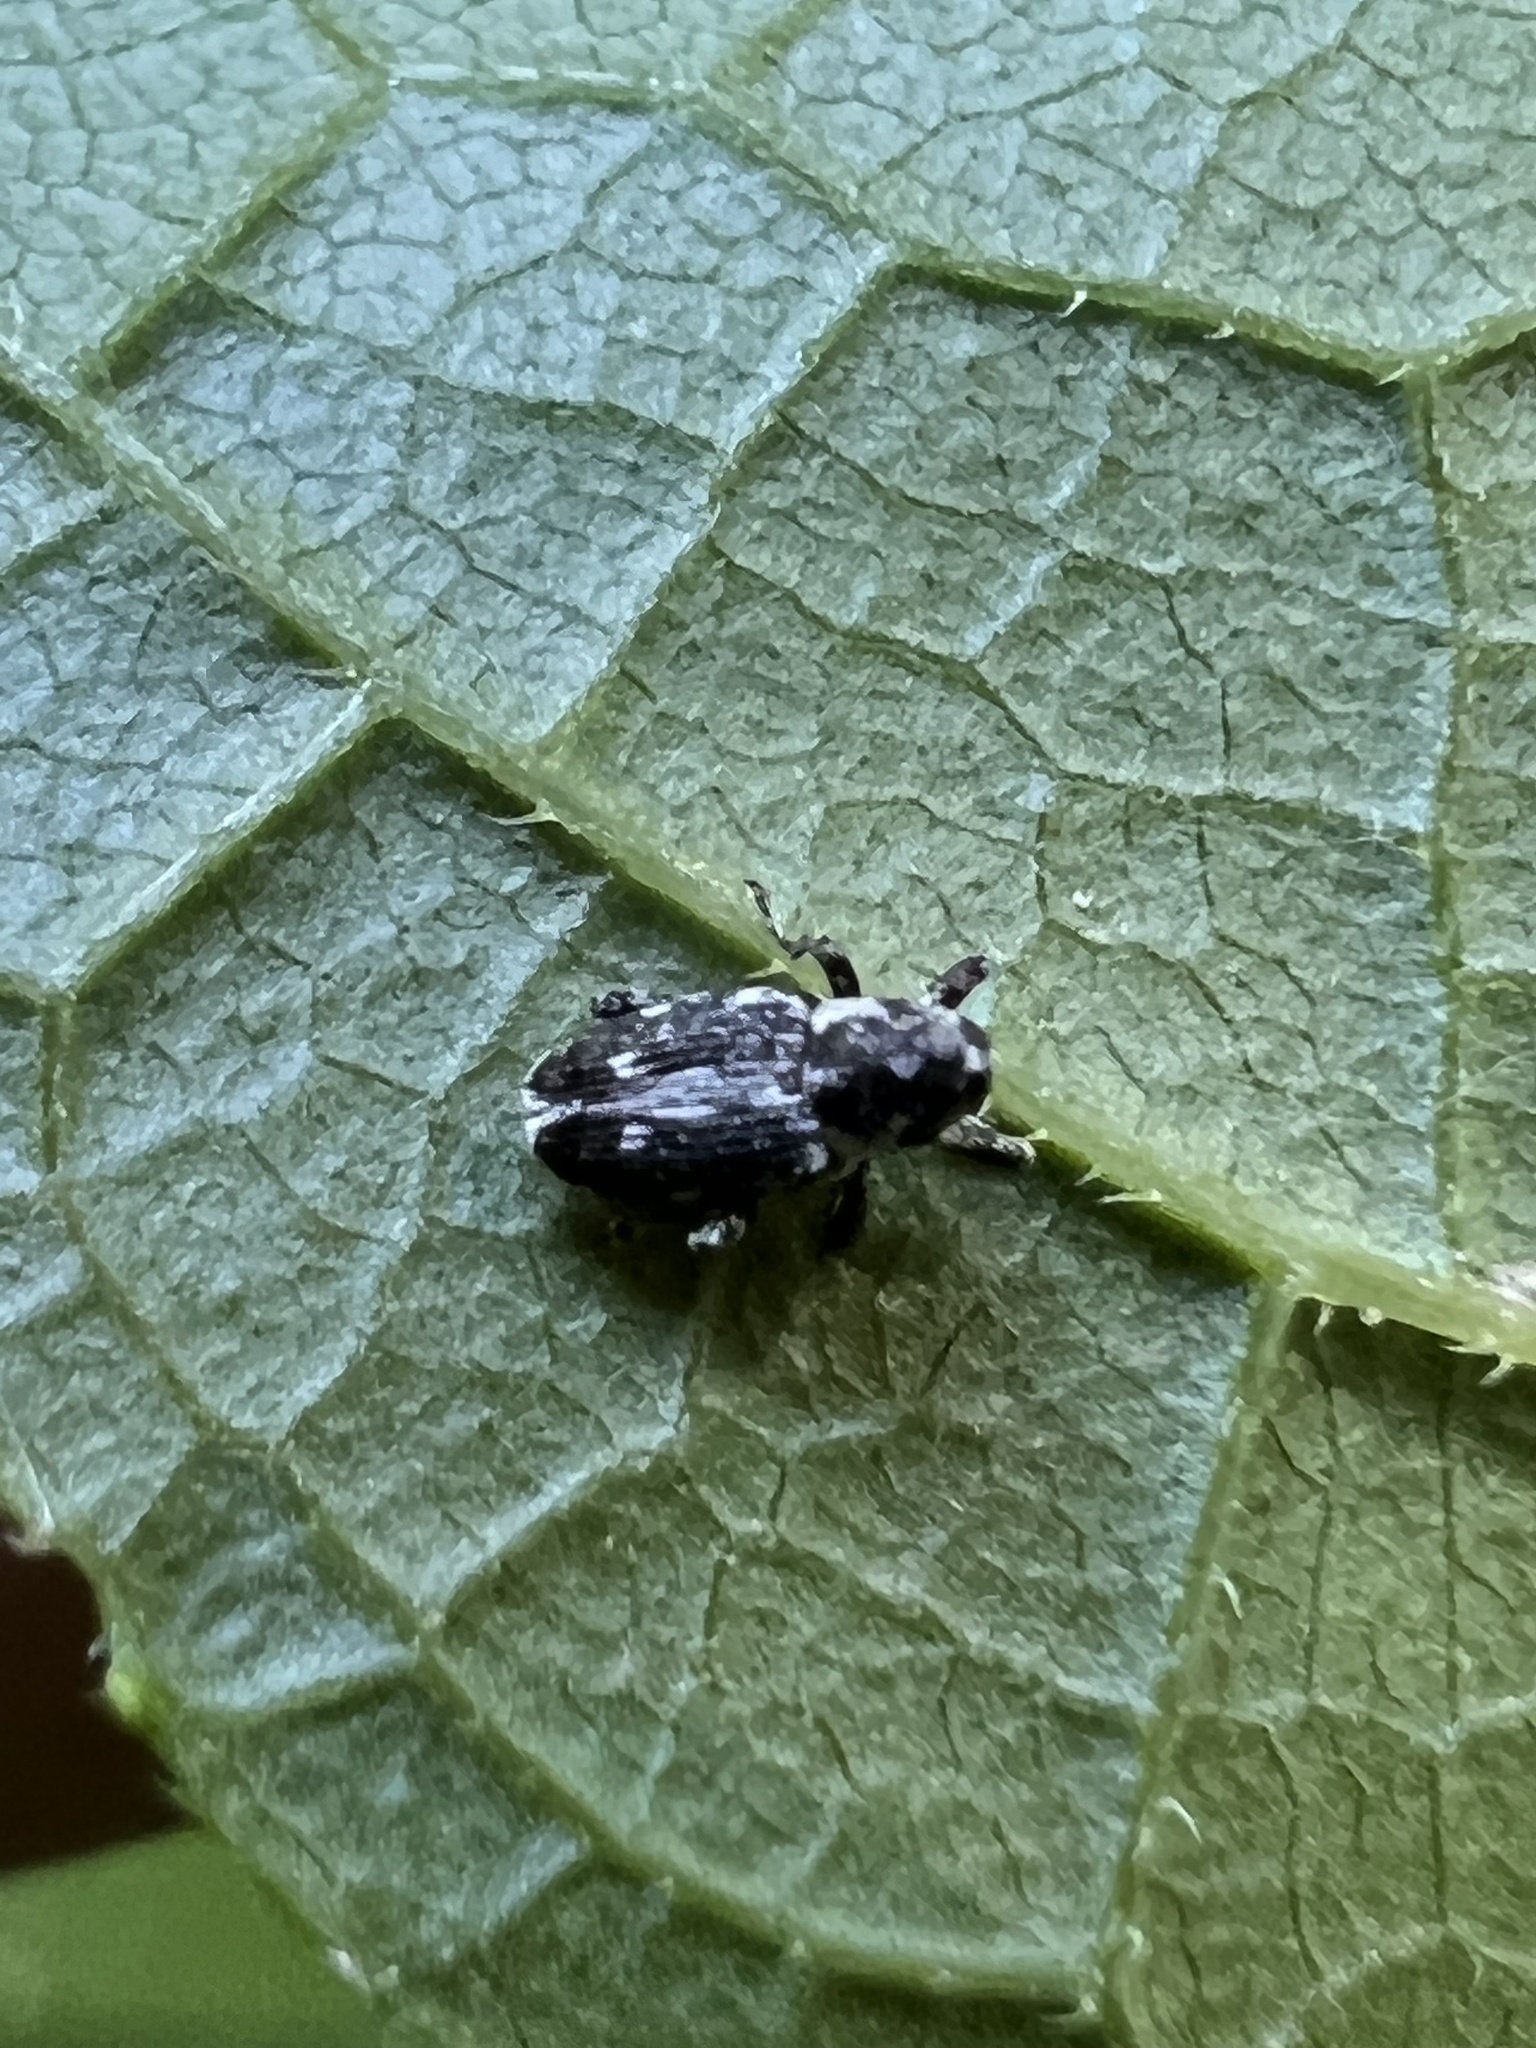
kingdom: Animalia
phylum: Arthropoda
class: Insecta
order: Coleoptera
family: Curculionidae
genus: Cylindrocopturus
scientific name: Cylindrocopturus quercus
